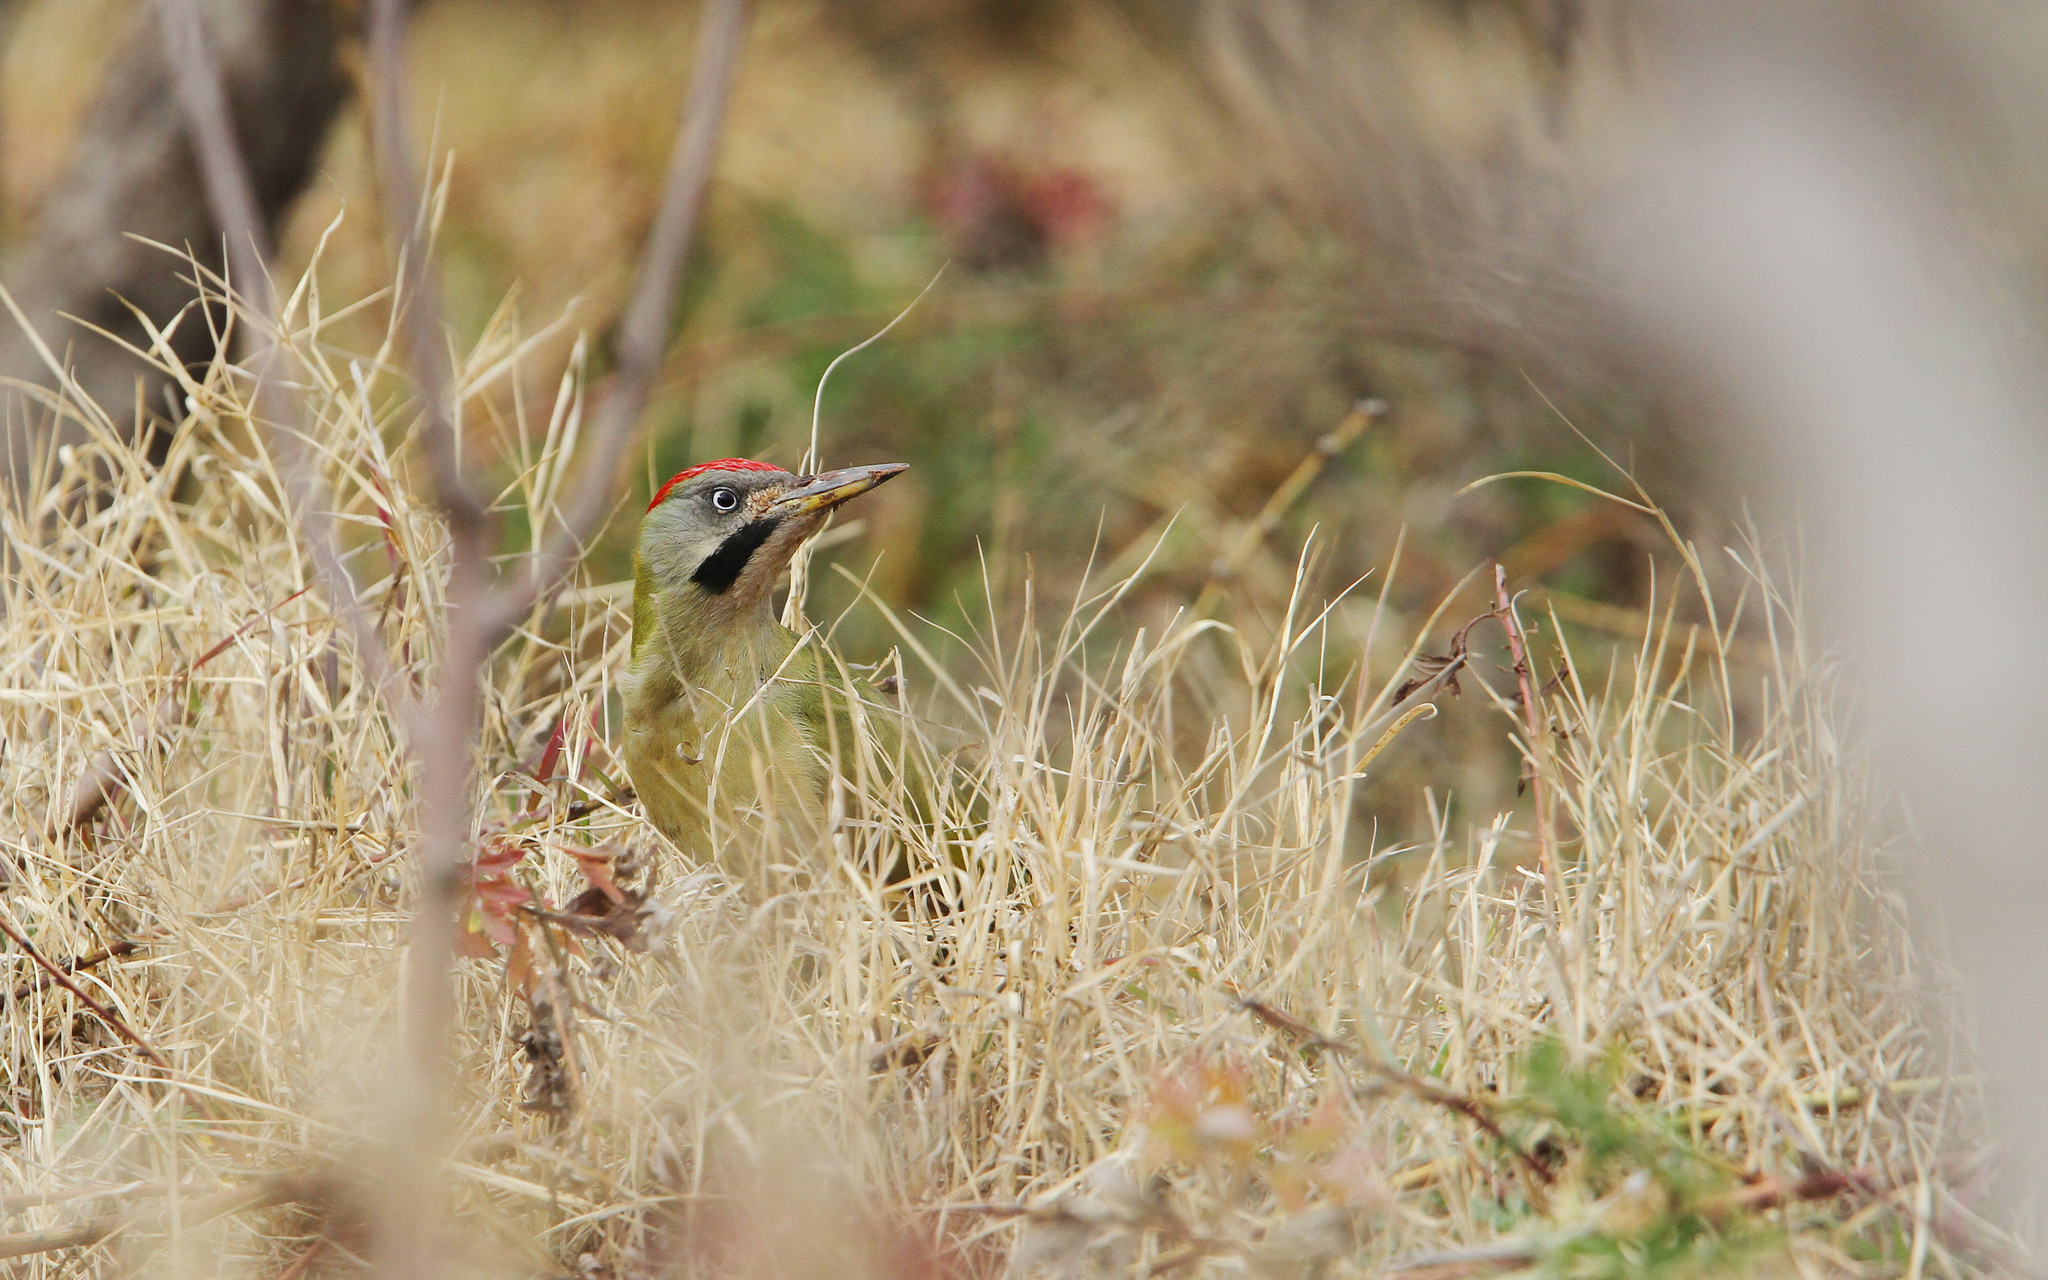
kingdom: Animalia
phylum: Chordata
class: Aves
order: Piciformes
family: Picidae
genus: Picus
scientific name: Picus vaillantii
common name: Levaillant's woodpecker
